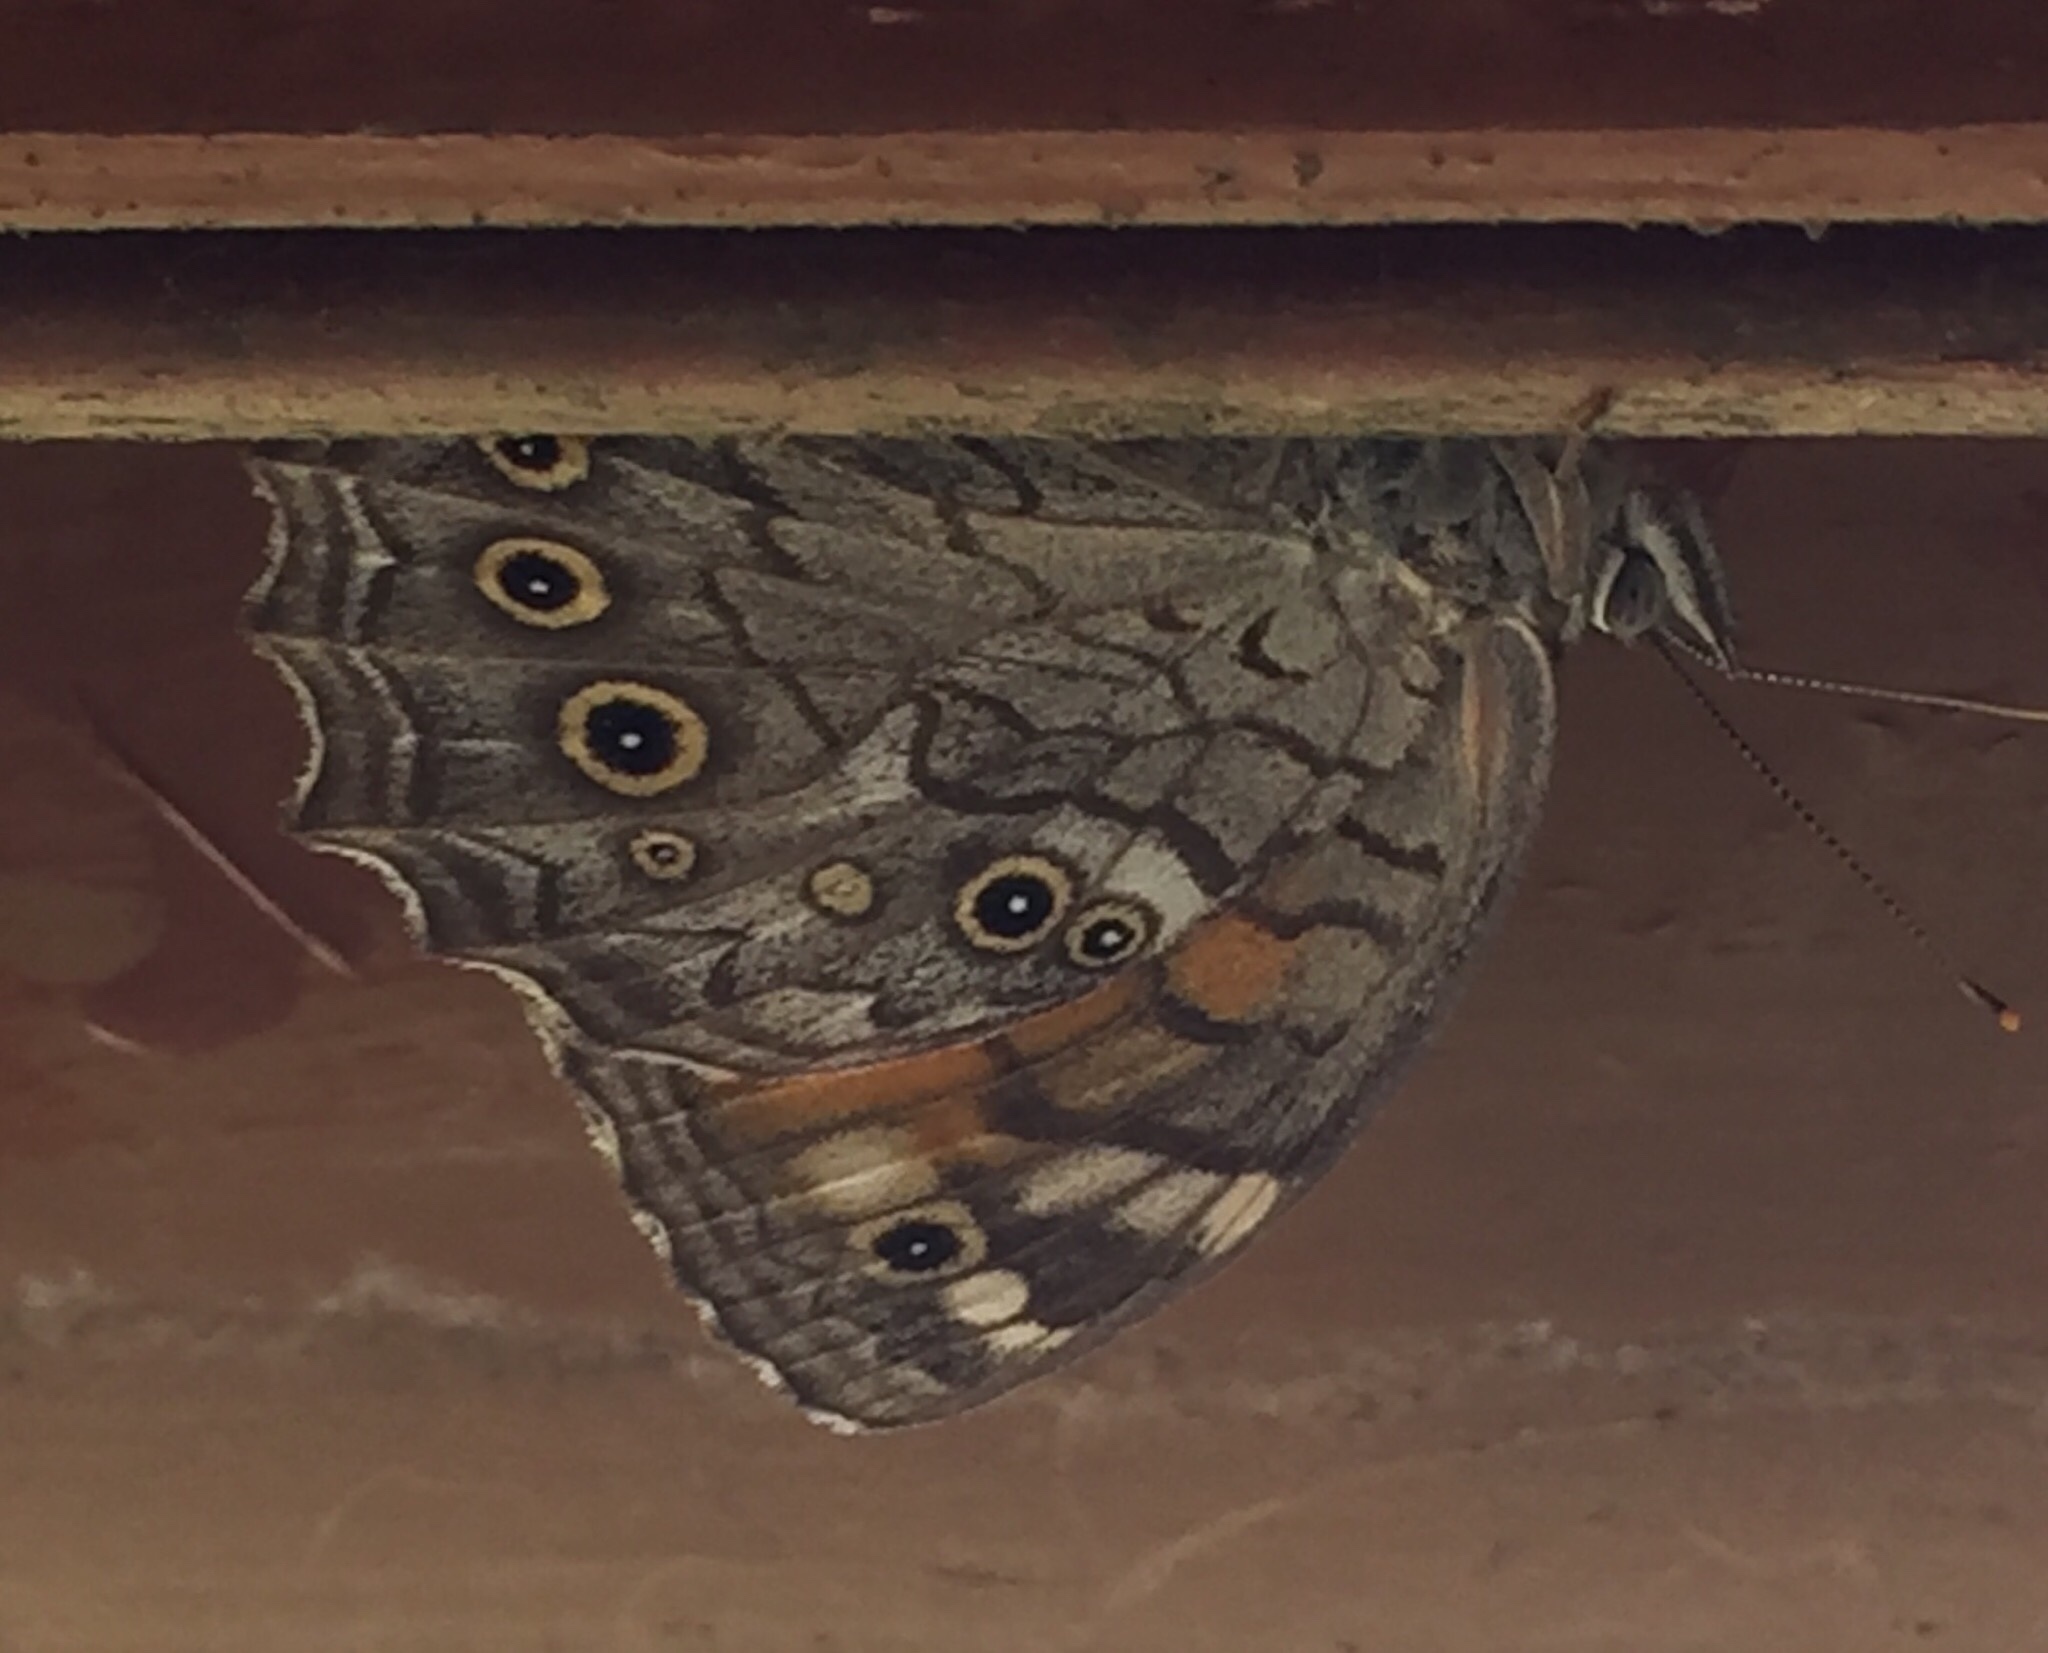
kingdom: Animalia
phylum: Arthropoda
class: Insecta
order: Lepidoptera
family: Nymphalidae
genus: Kirinia
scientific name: Kirinia roxelana
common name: Lattice brown
